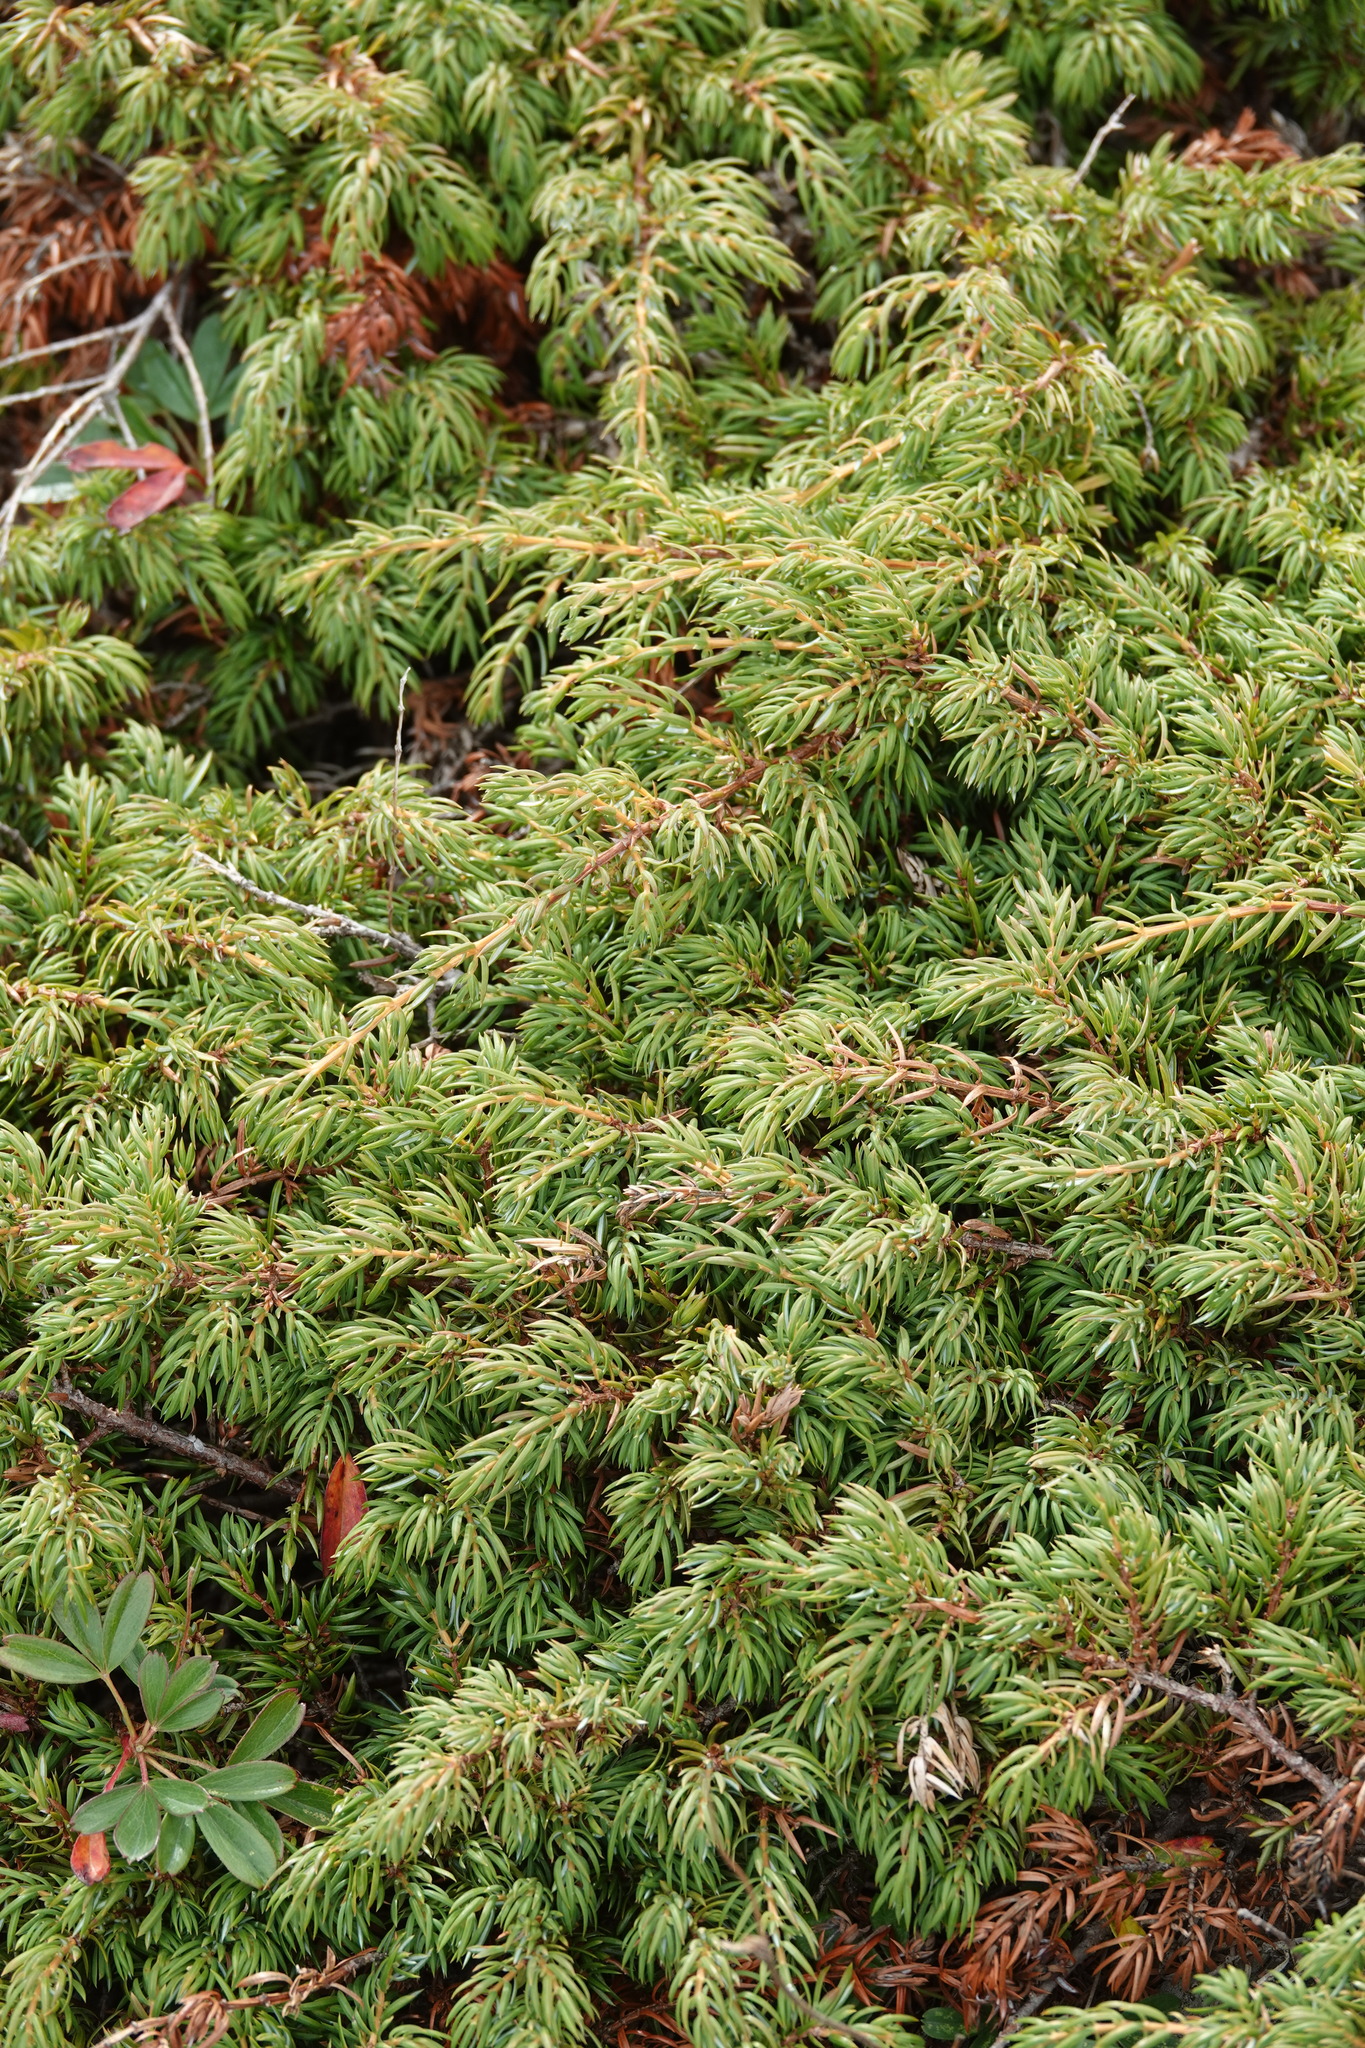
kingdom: Plantae
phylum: Tracheophyta
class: Pinopsida
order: Pinales
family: Cupressaceae
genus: Juniperus
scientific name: Juniperus communis
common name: Common juniper
